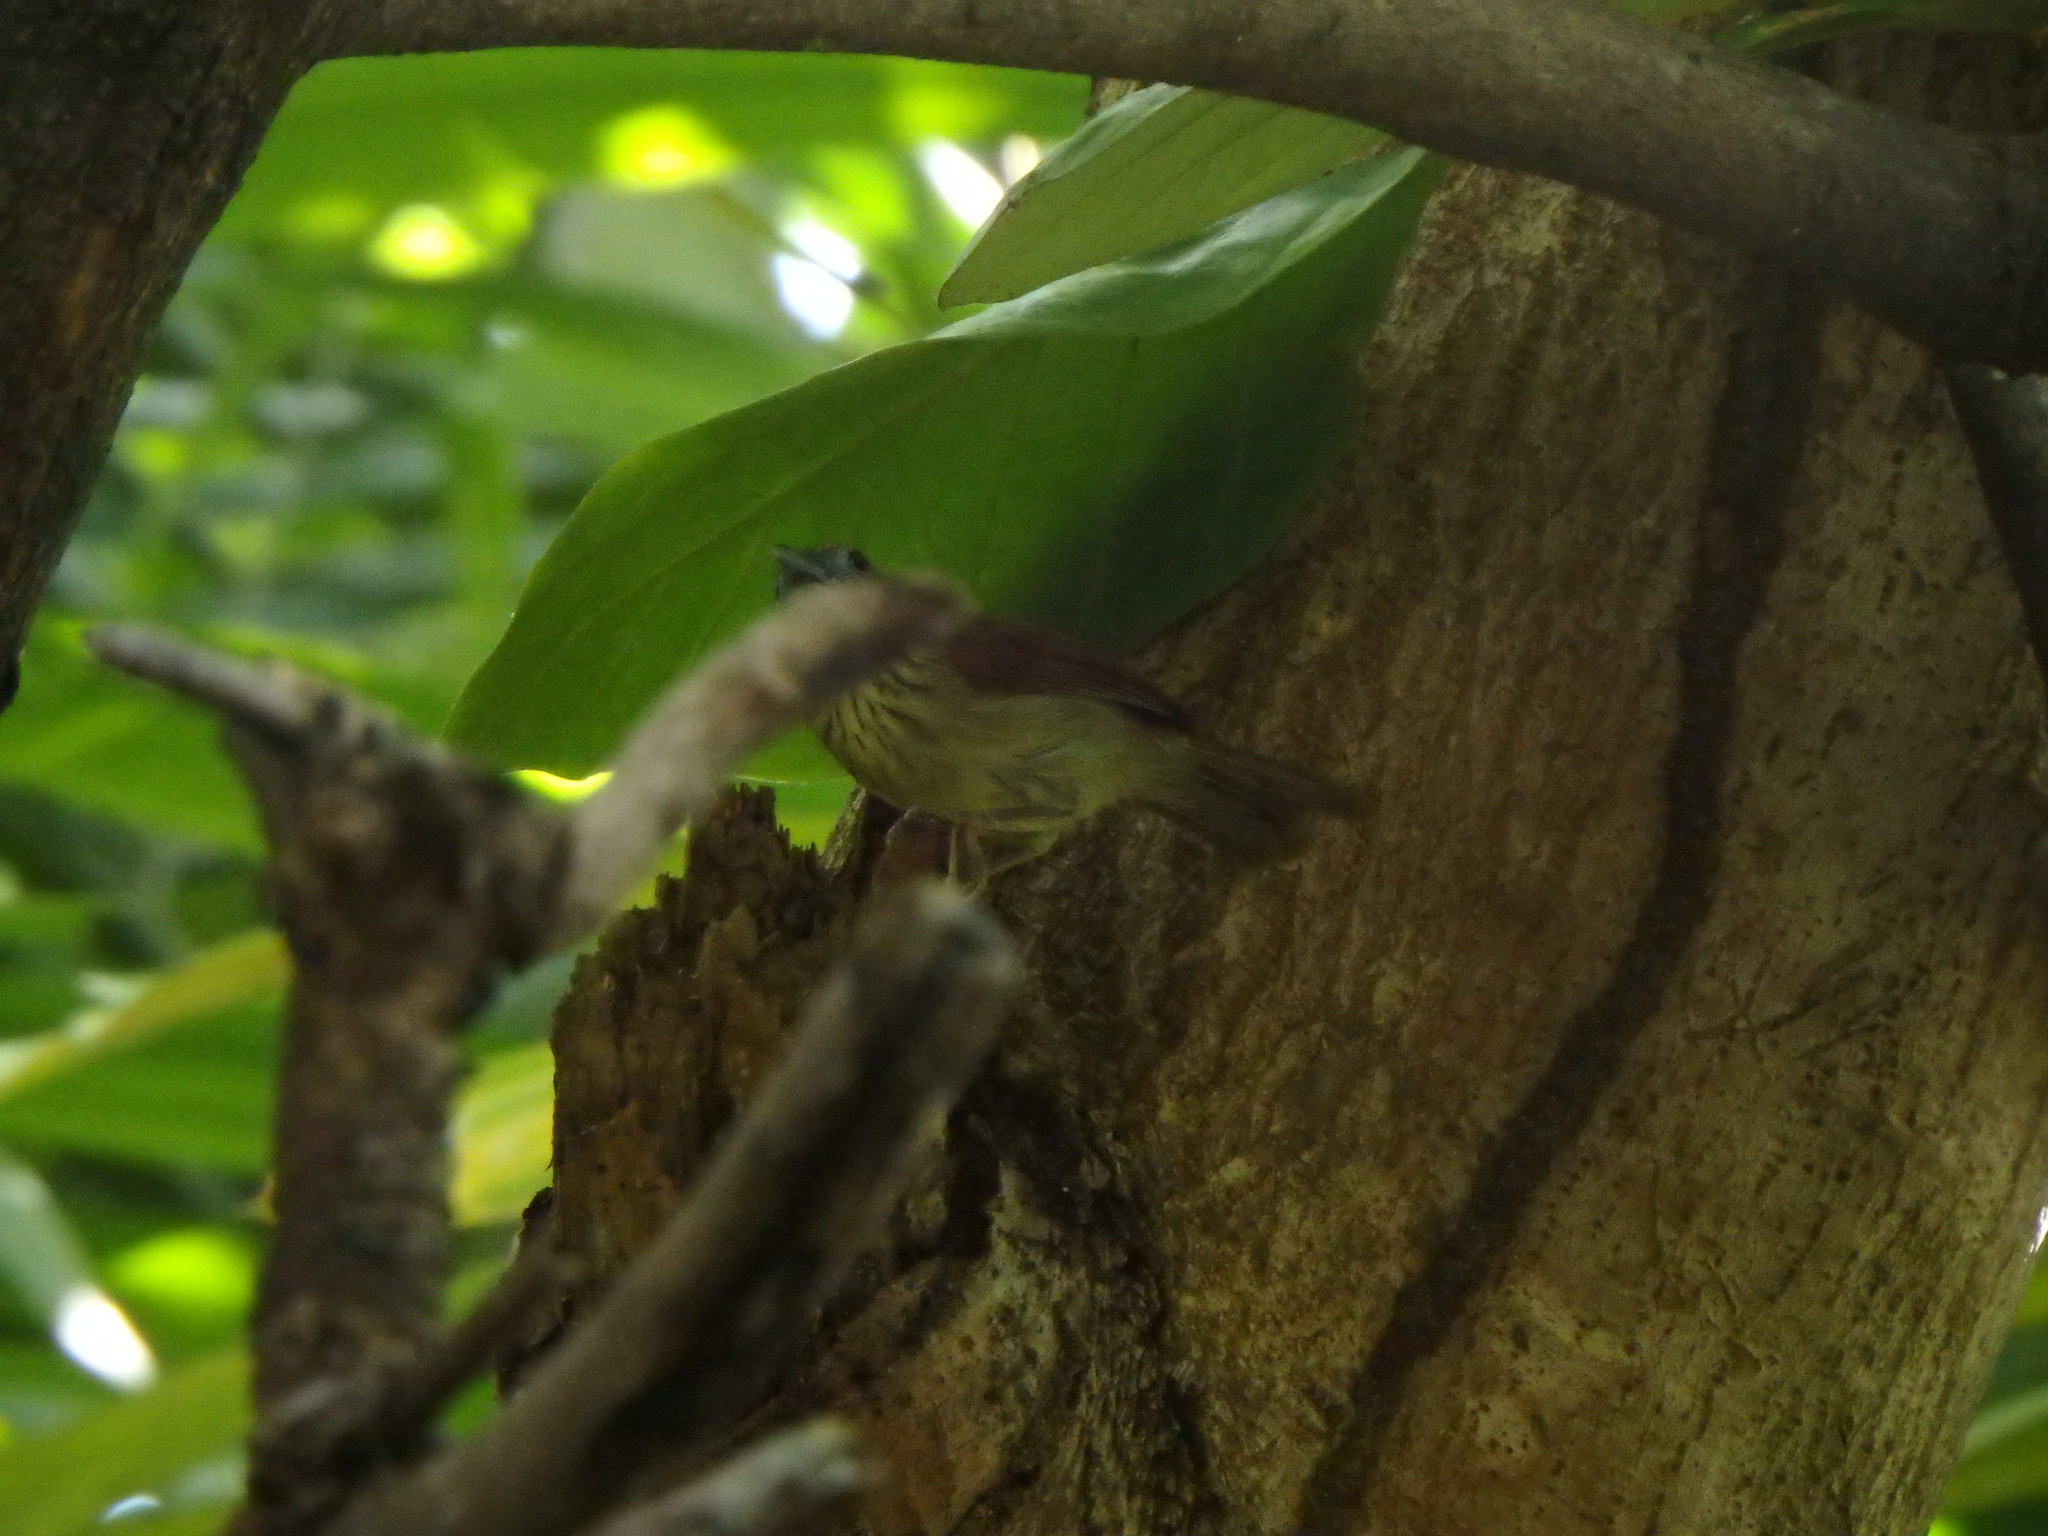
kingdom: Animalia
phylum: Chordata
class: Aves
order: Passeriformes
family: Timaliidae
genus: Macronus
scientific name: Macronus gularis
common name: Striped tit-babbler
